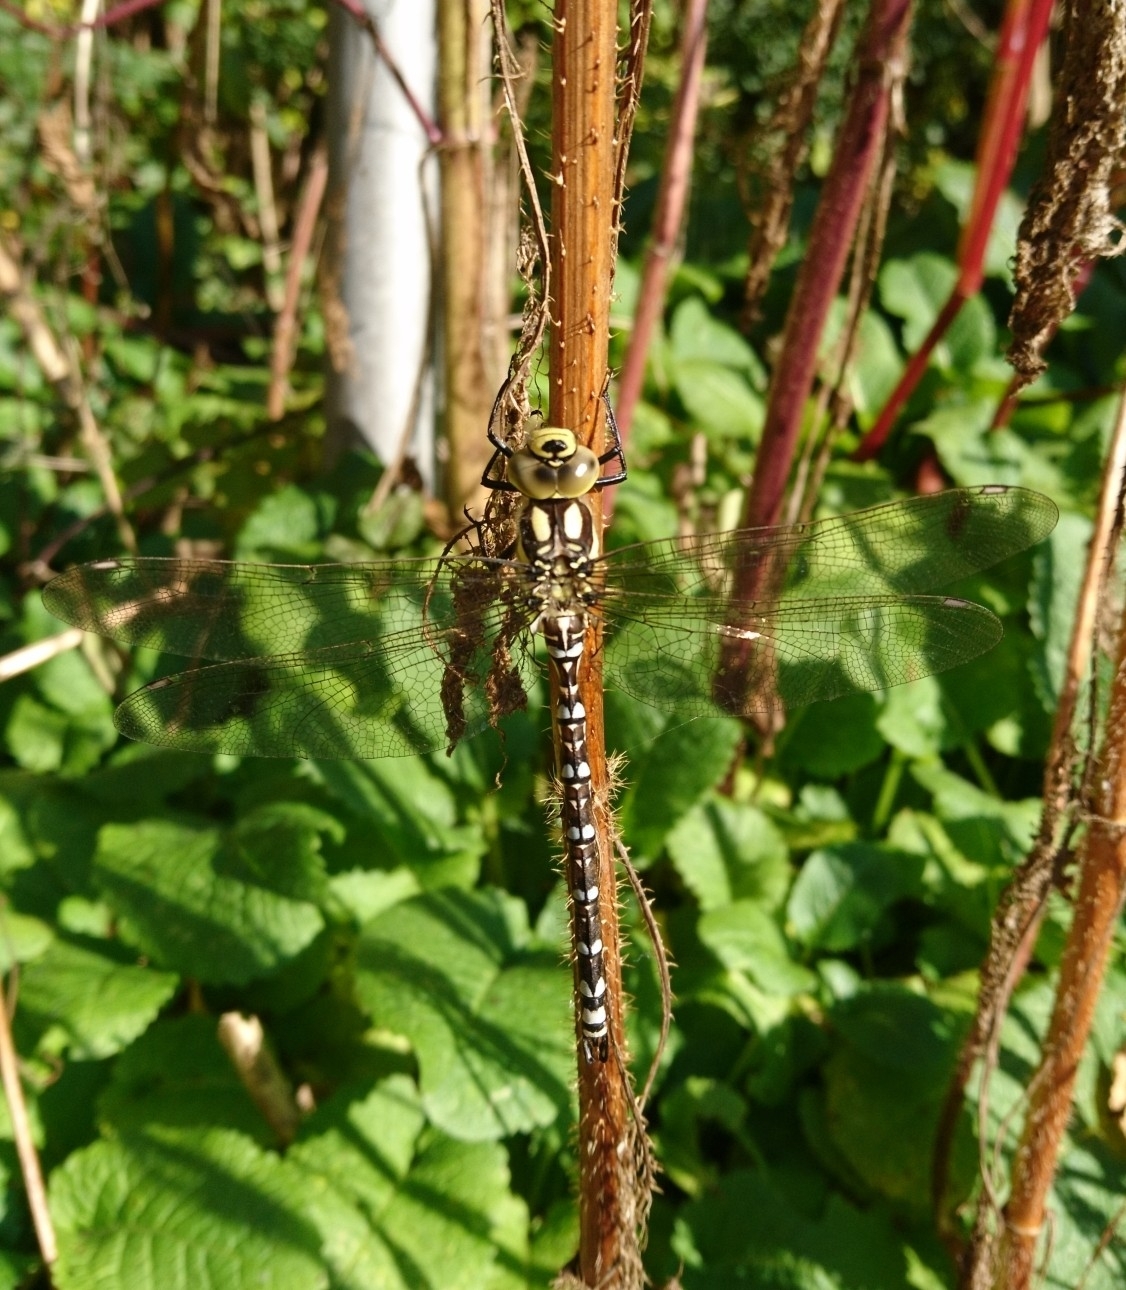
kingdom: Animalia
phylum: Arthropoda
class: Insecta
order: Odonata
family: Aeshnidae
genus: Aeshna
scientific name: Aeshna cyanea
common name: Southern hawker
